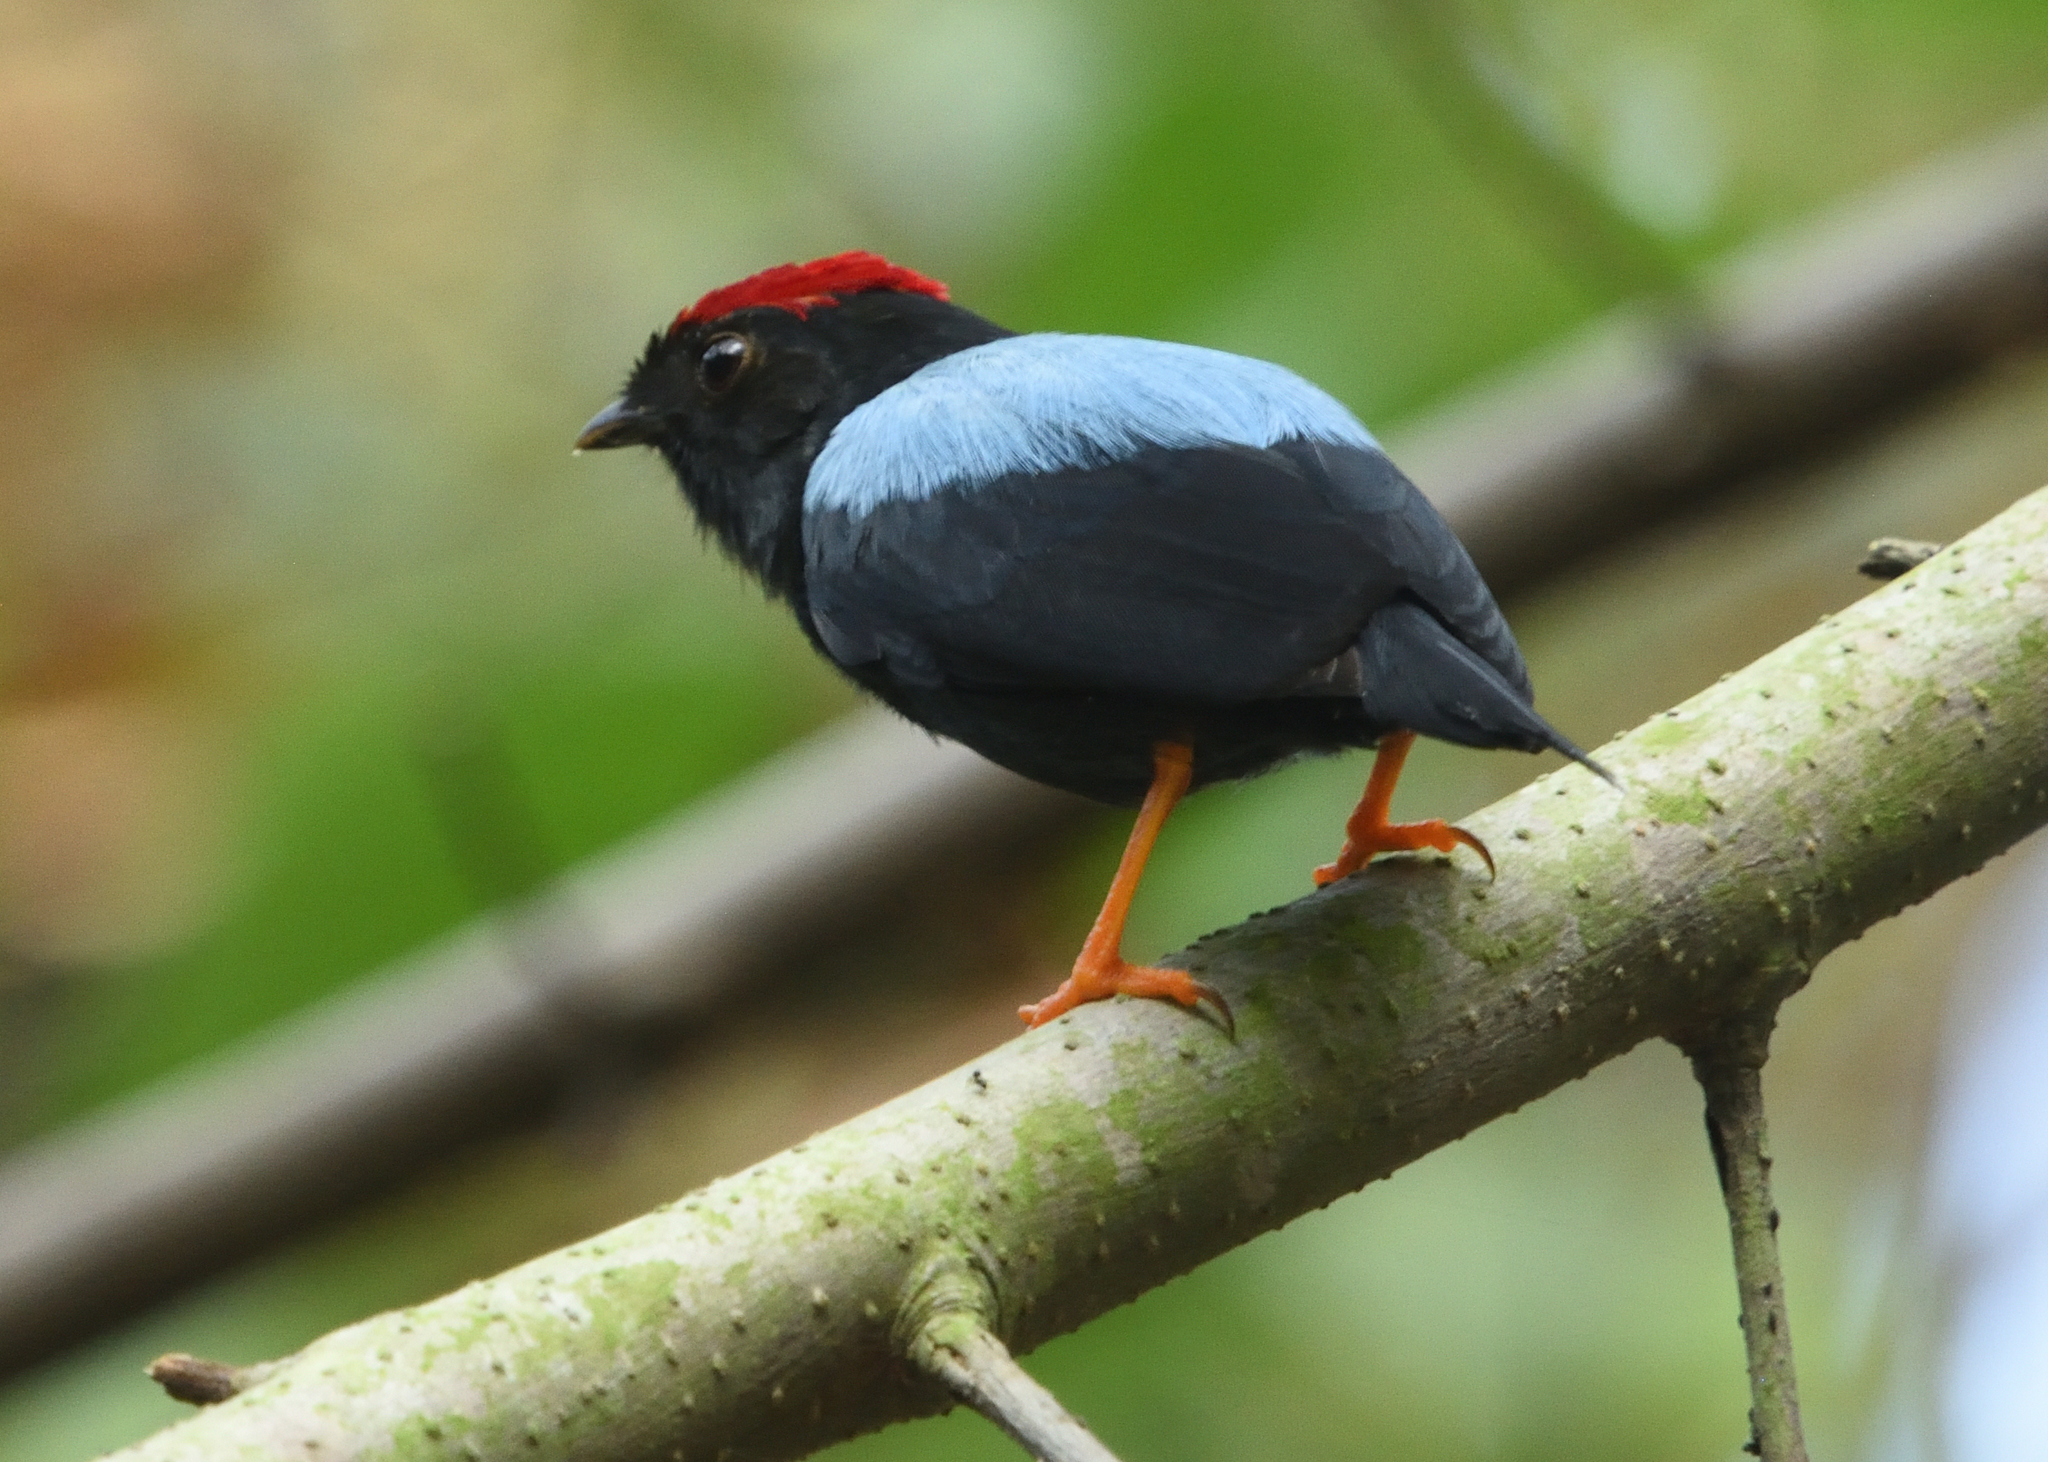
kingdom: Animalia
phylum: Chordata
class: Aves
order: Passeriformes
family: Pipridae
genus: Chiroxiphia
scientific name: Chiroxiphia lanceolata
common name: Lance-tailed manakin
